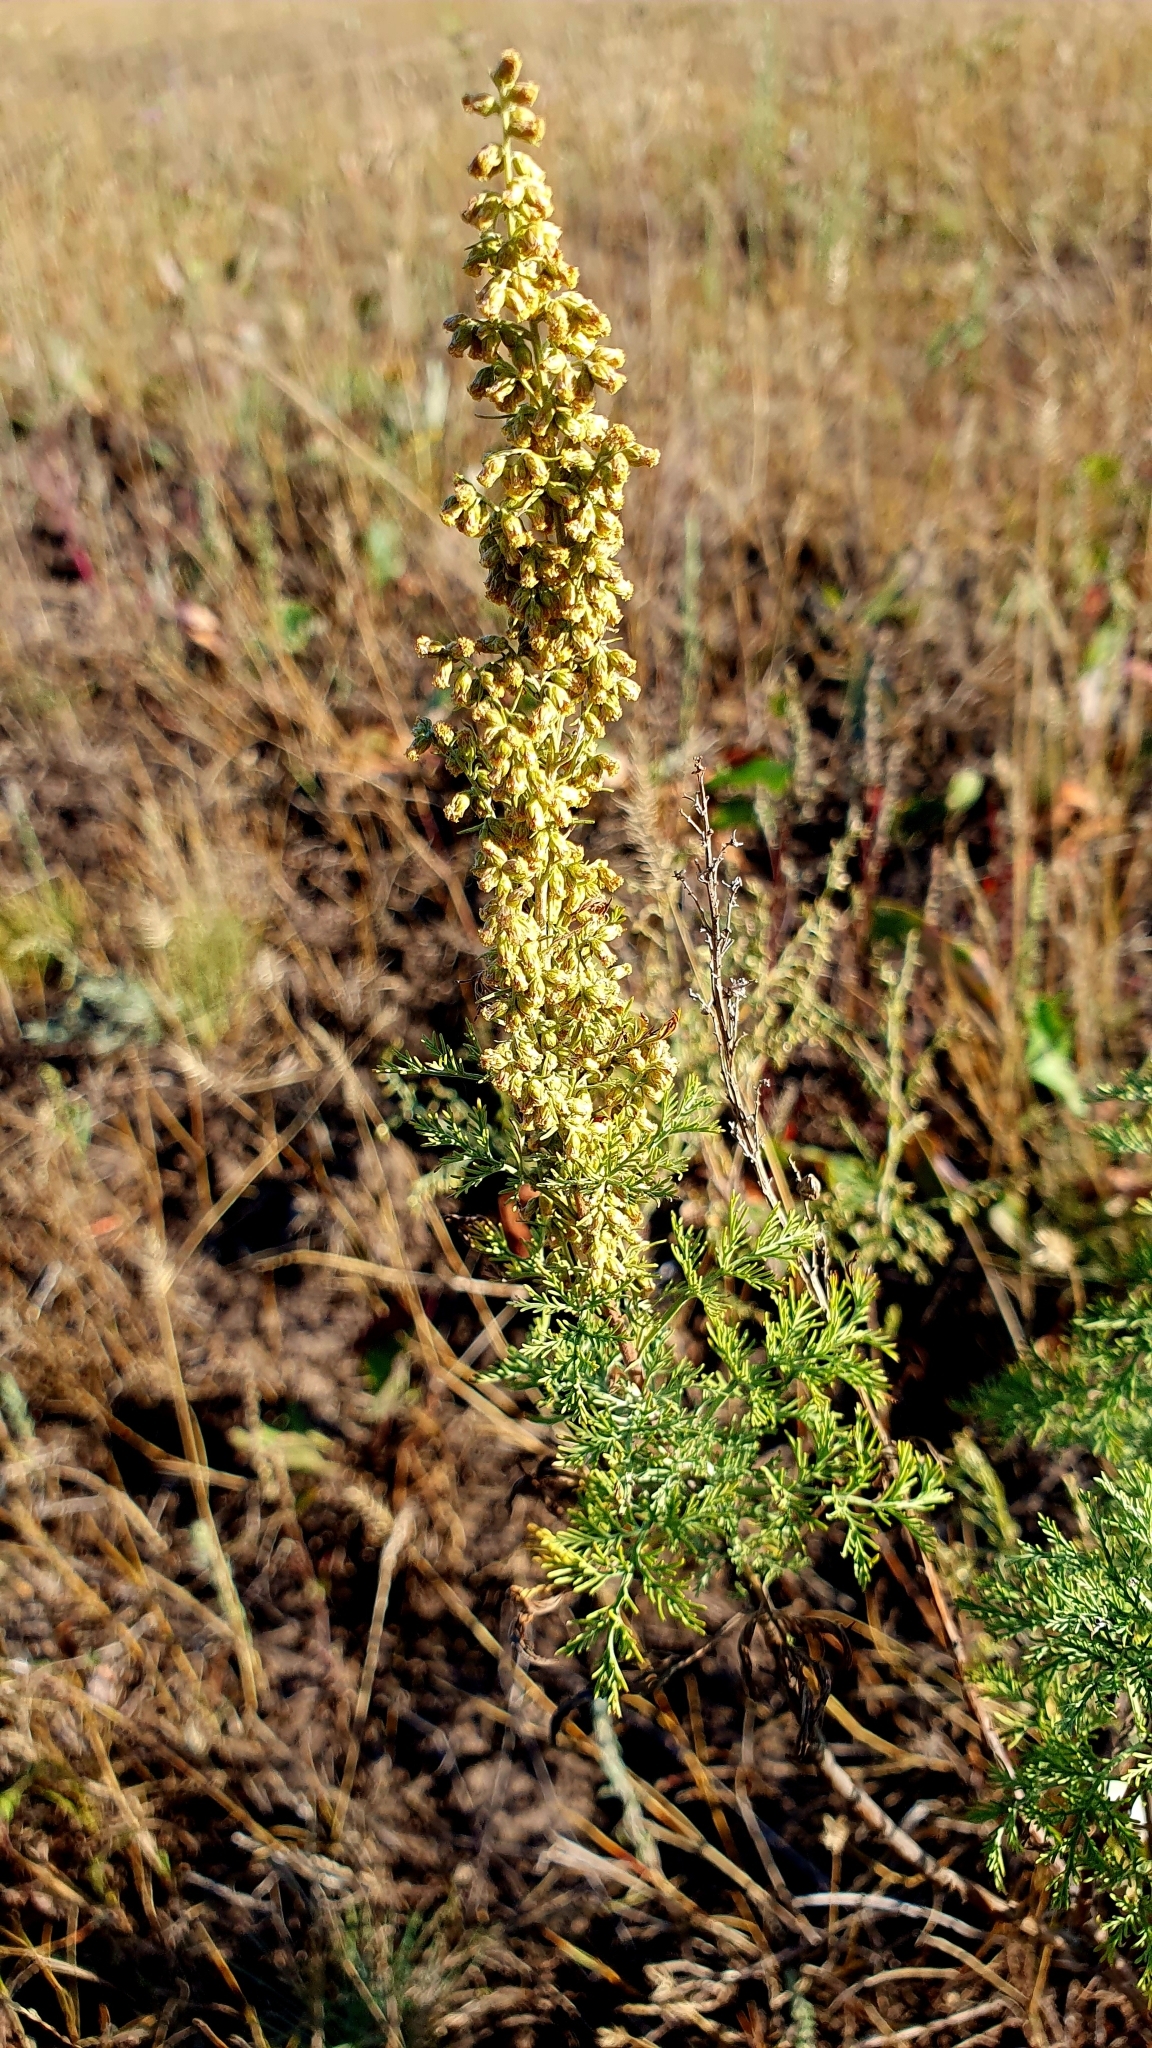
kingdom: Plantae
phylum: Tracheophyta
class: Magnoliopsida
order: Asterales
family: Asteraceae
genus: Artemisia
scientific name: Artemisia abrotanum
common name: Southernwood
